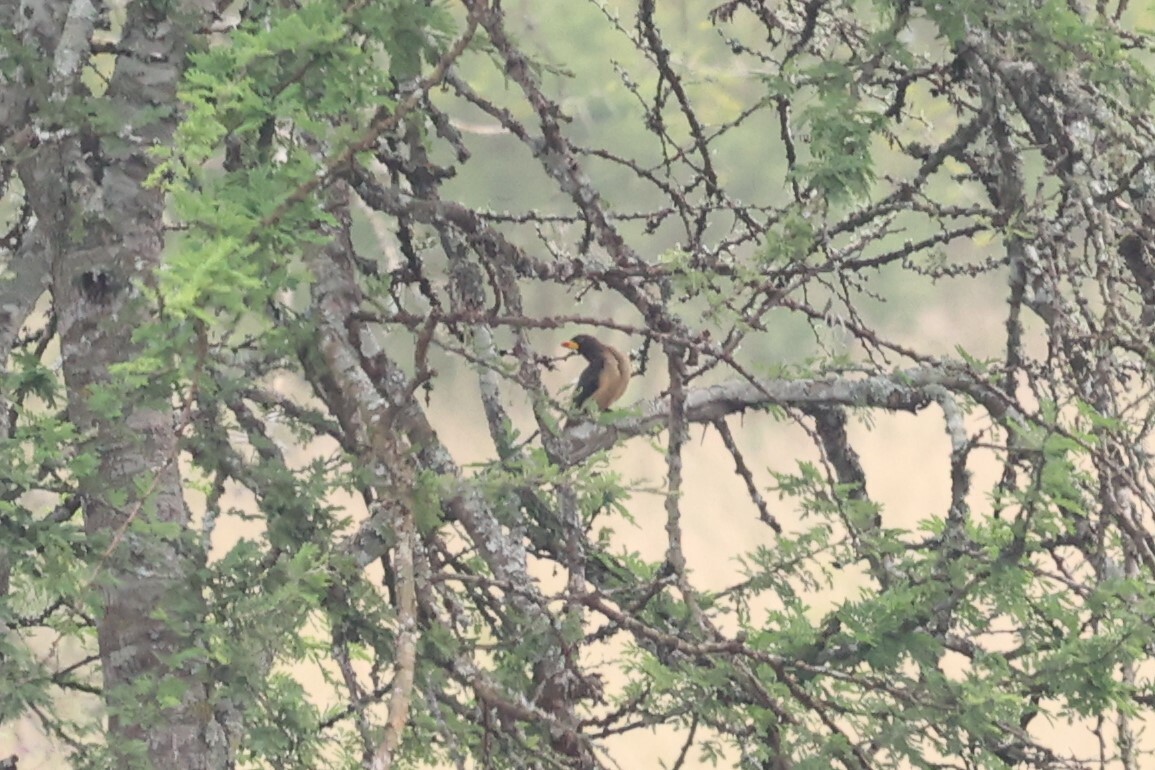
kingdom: Animalia
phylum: Chordata
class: Aves
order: Passeriformes
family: Buphagidae
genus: Buphagus
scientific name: Buphagus africanus
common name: Yellow-billed oxpecker
